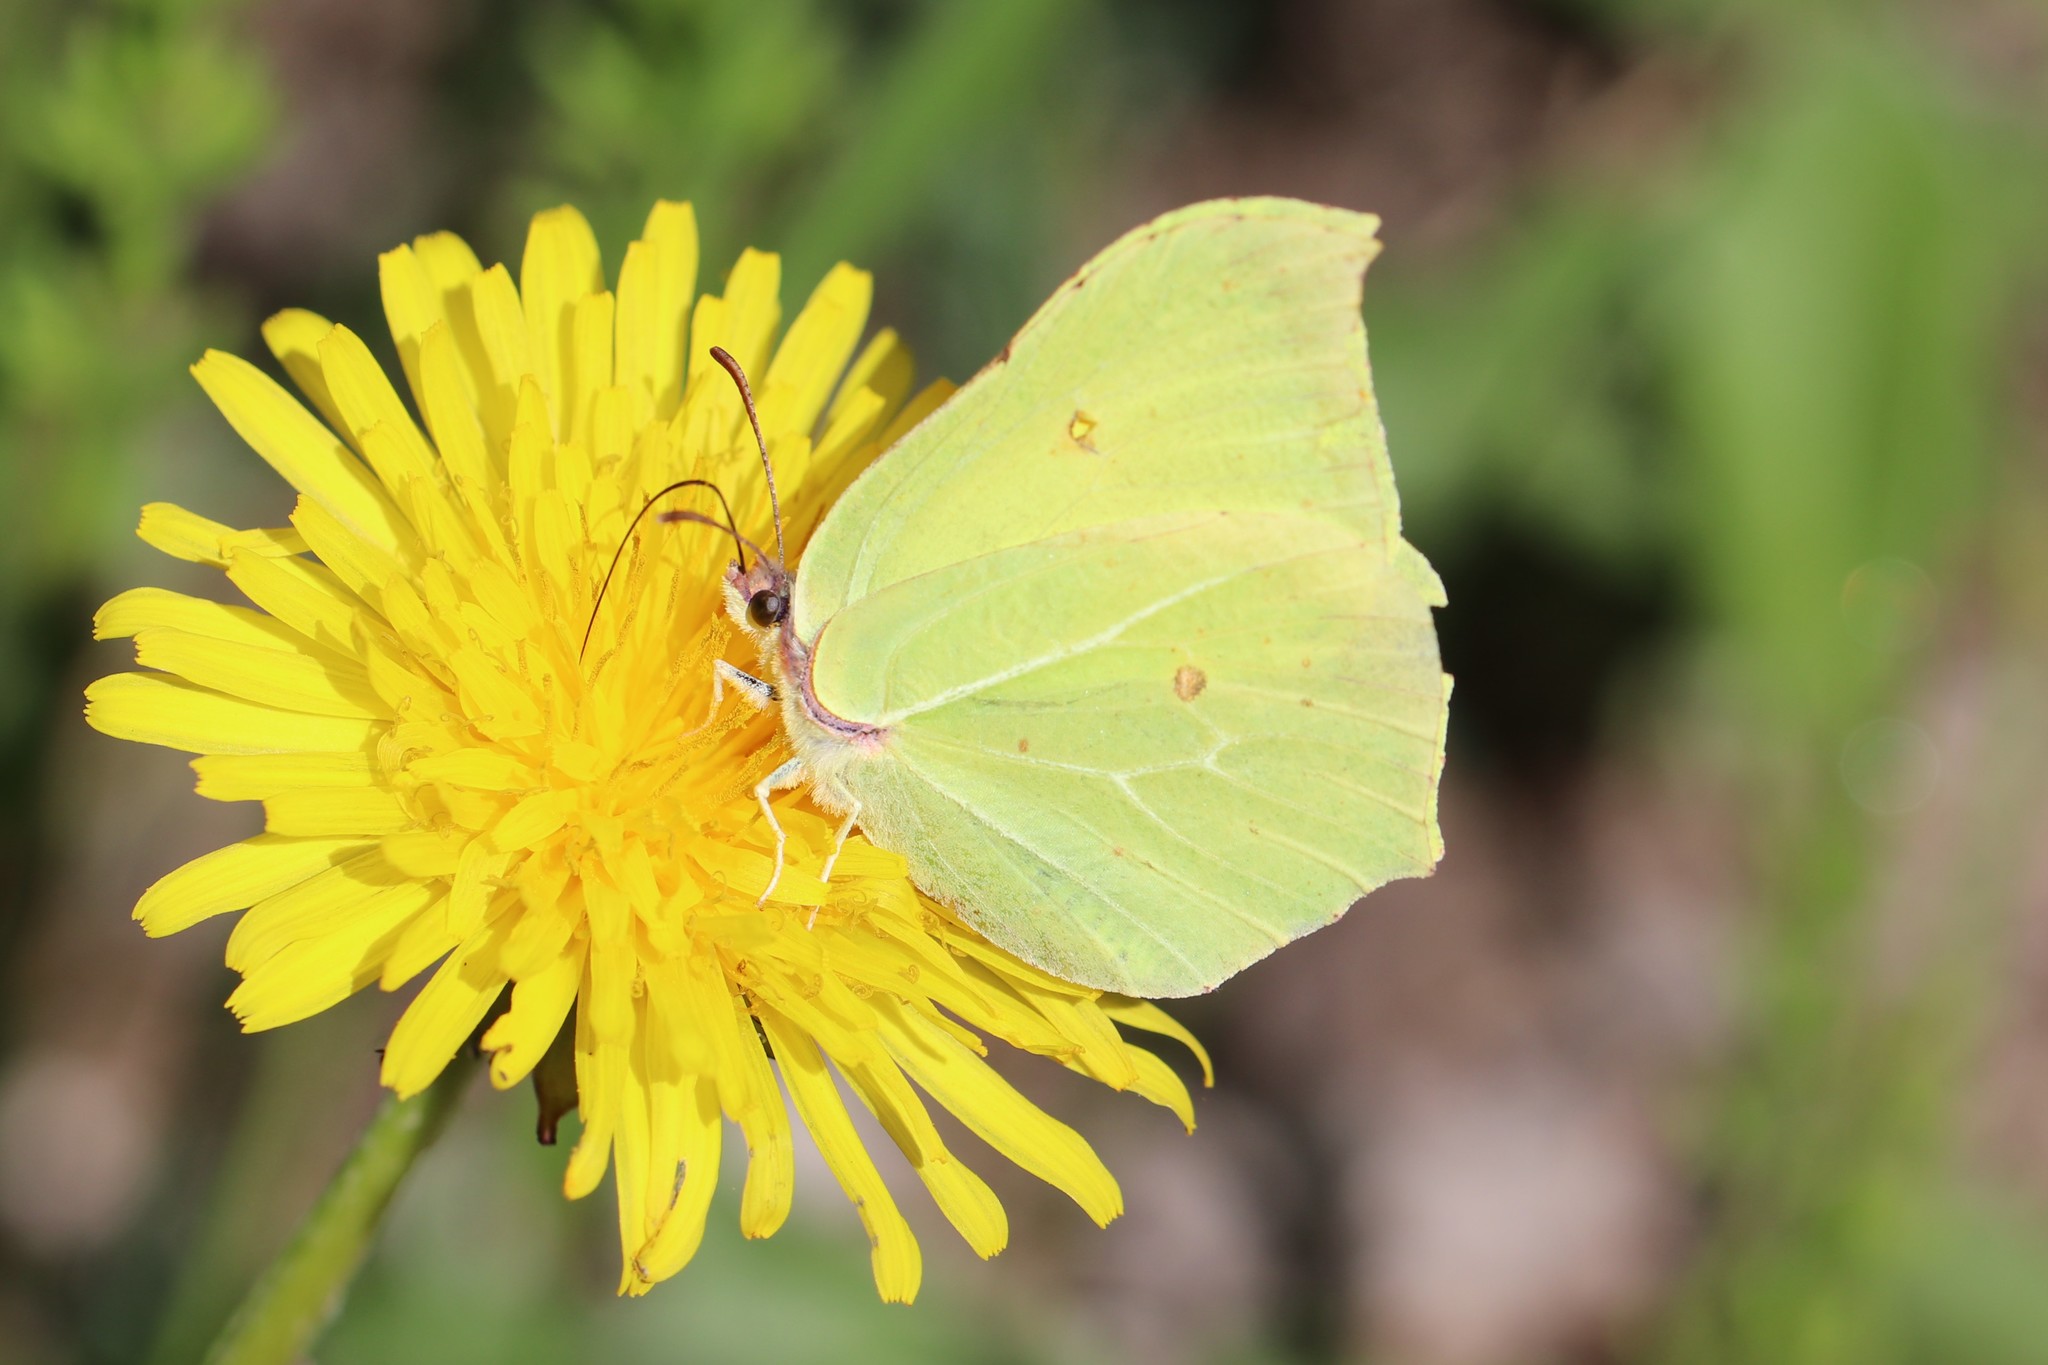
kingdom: Animalia
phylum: Arthropoda
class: Insecta
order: Lepidoptera
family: Pieridae
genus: Gonepteryx
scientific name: Gonepteryx rhamni
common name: Brimstone
